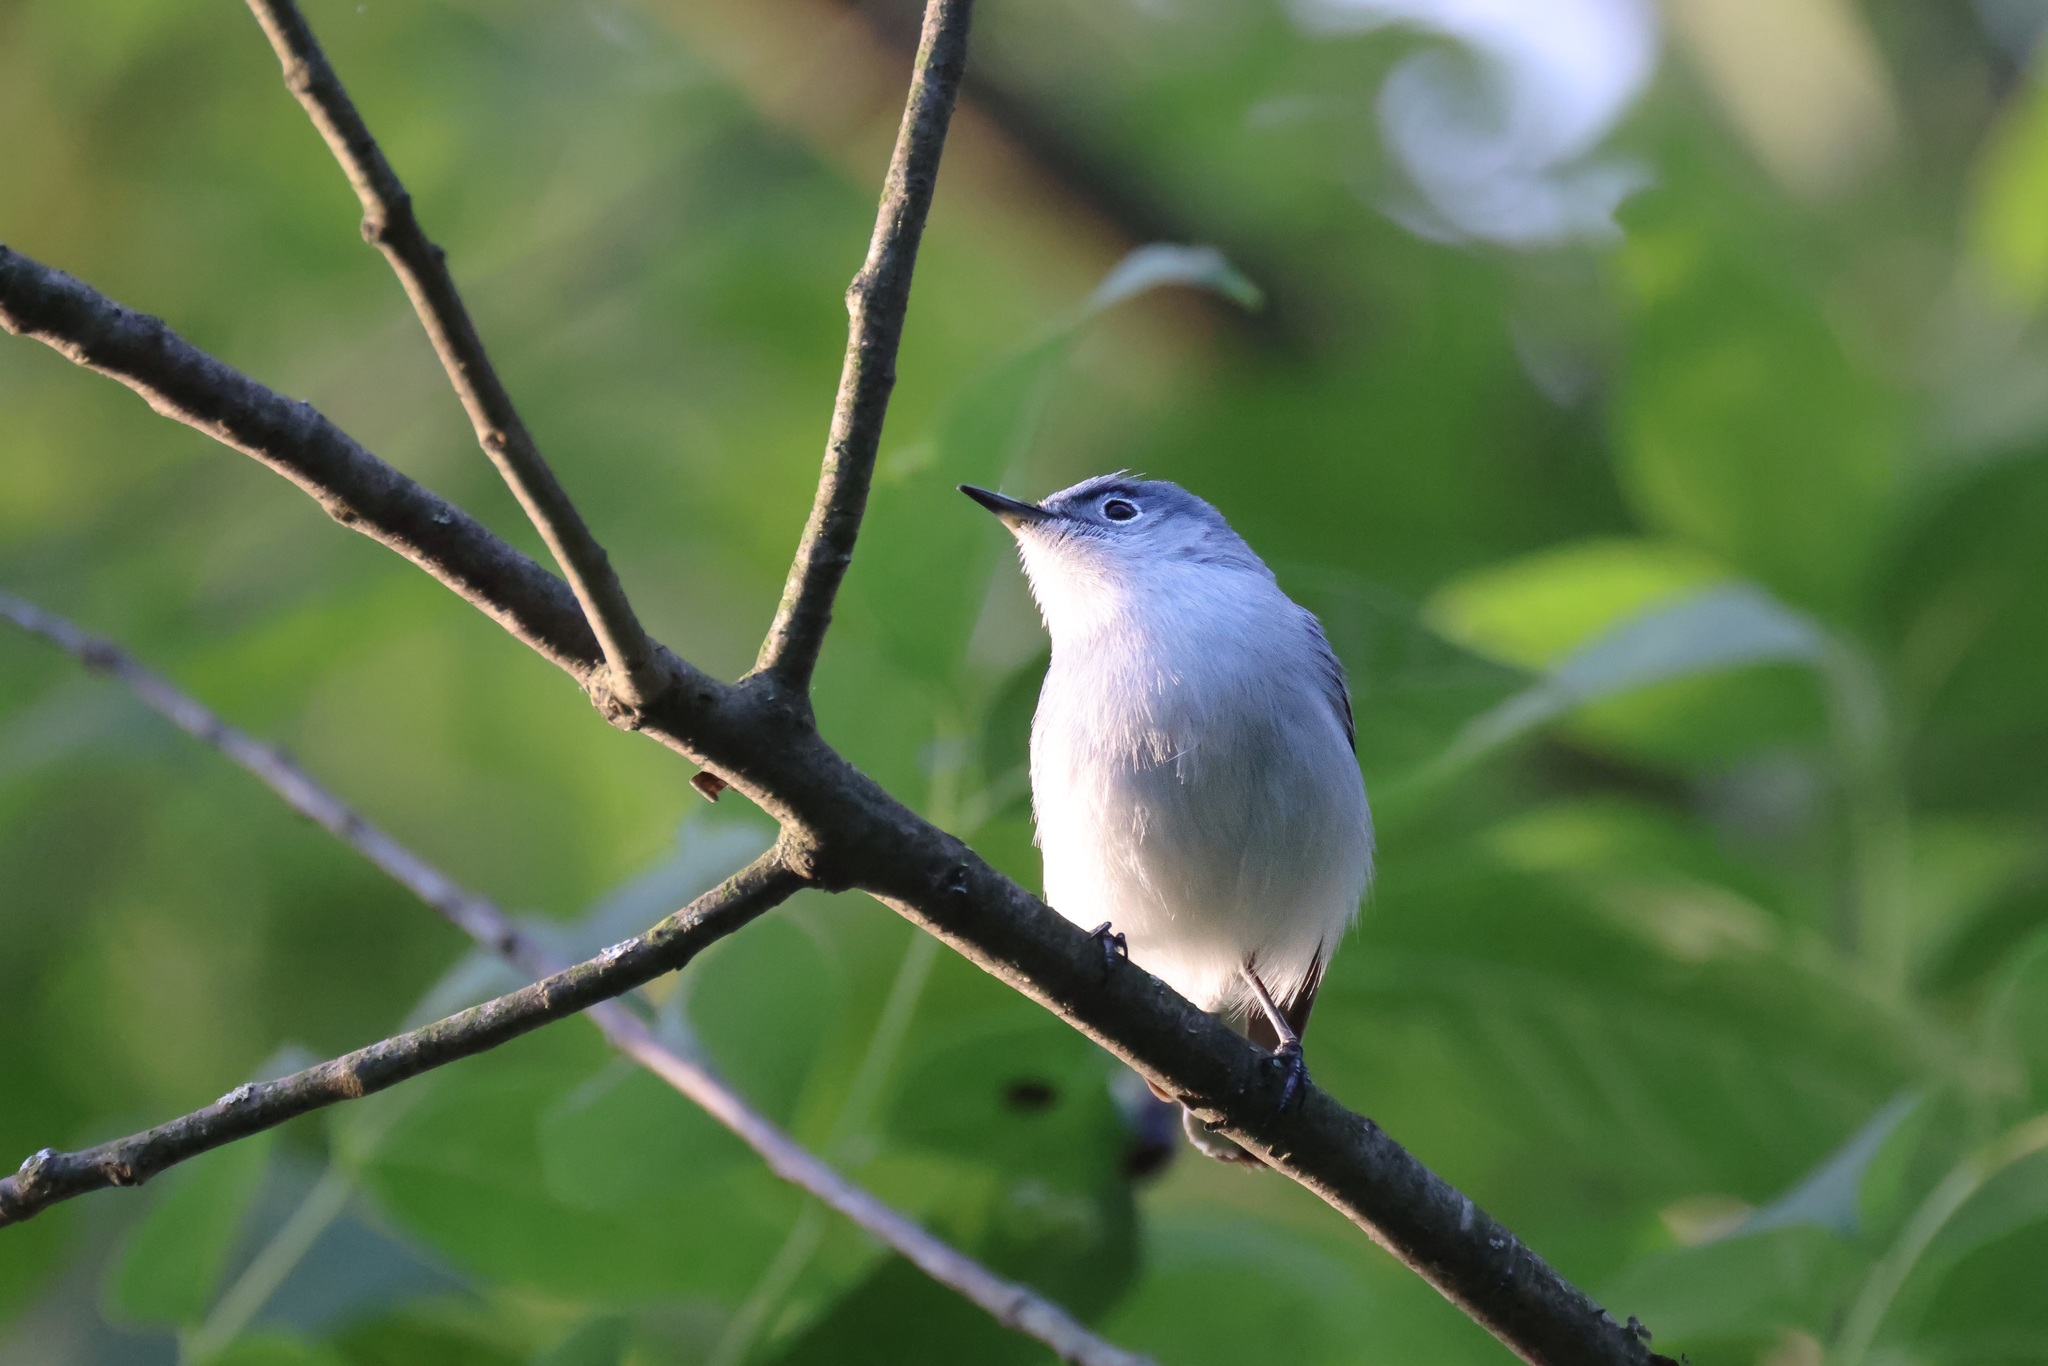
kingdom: Animalia
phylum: Chordata
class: Aves
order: Passeriformes
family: Polioptilidae
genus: Polioptila
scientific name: Polioptila caerulea
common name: Blue-gray gnatcatcher
